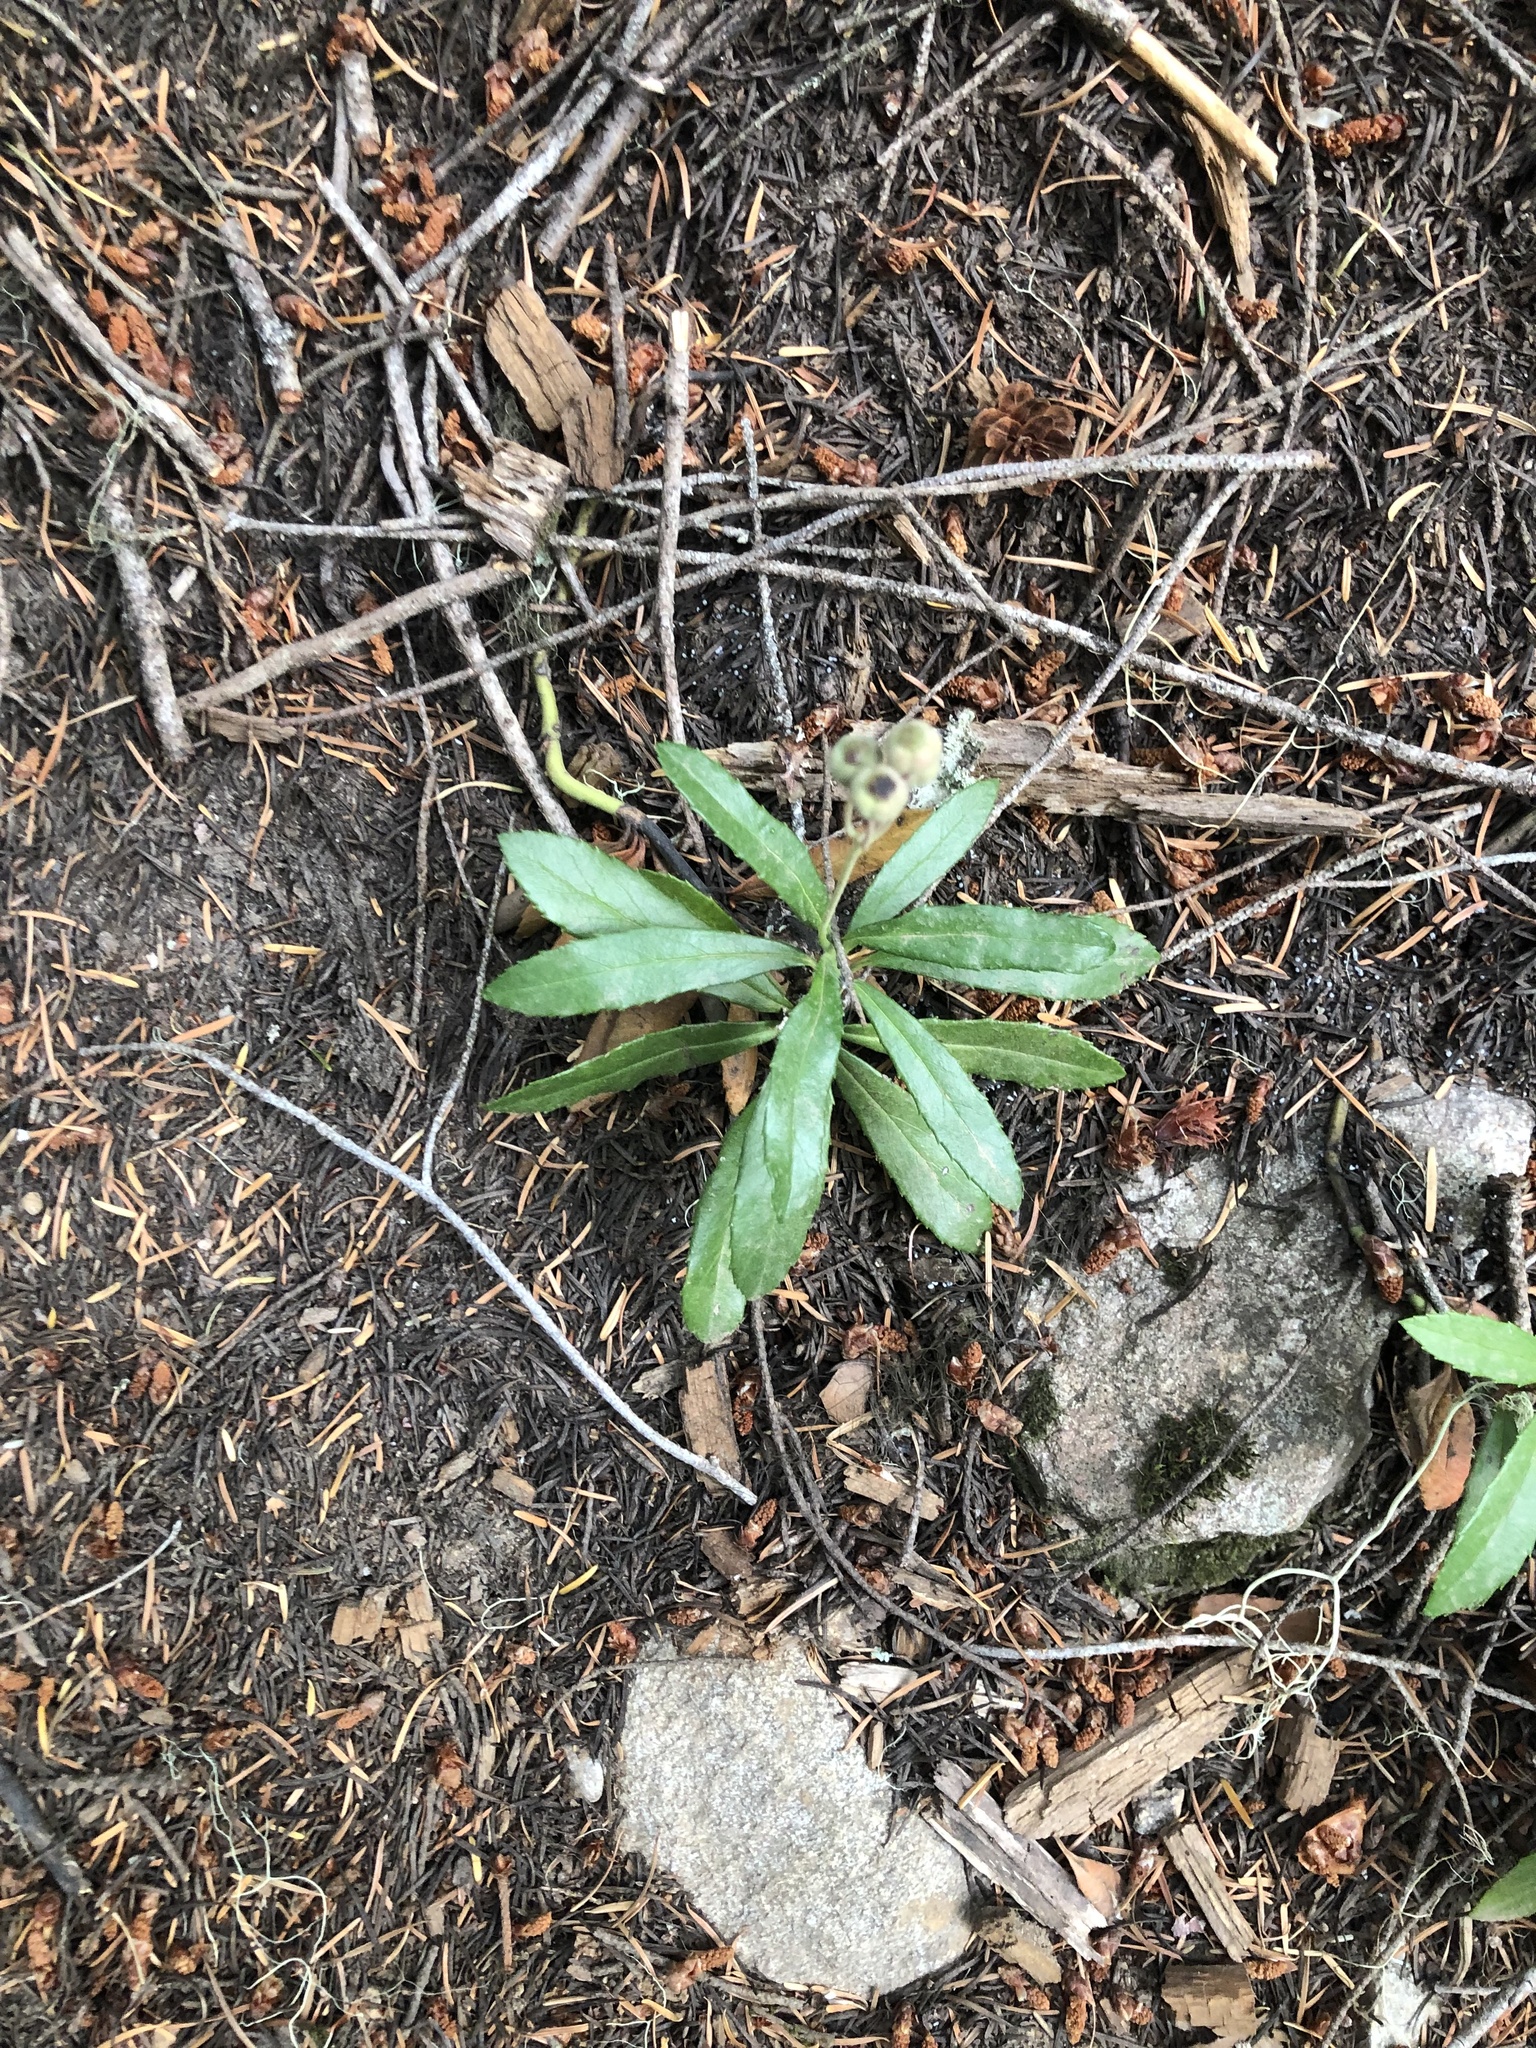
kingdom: Plantae
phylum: Tracheophyta
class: Magnoliopsida
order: Ericales
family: Ericaceae
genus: Chimaphila
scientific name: Chimaphila umbellata
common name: Pipsissewa
